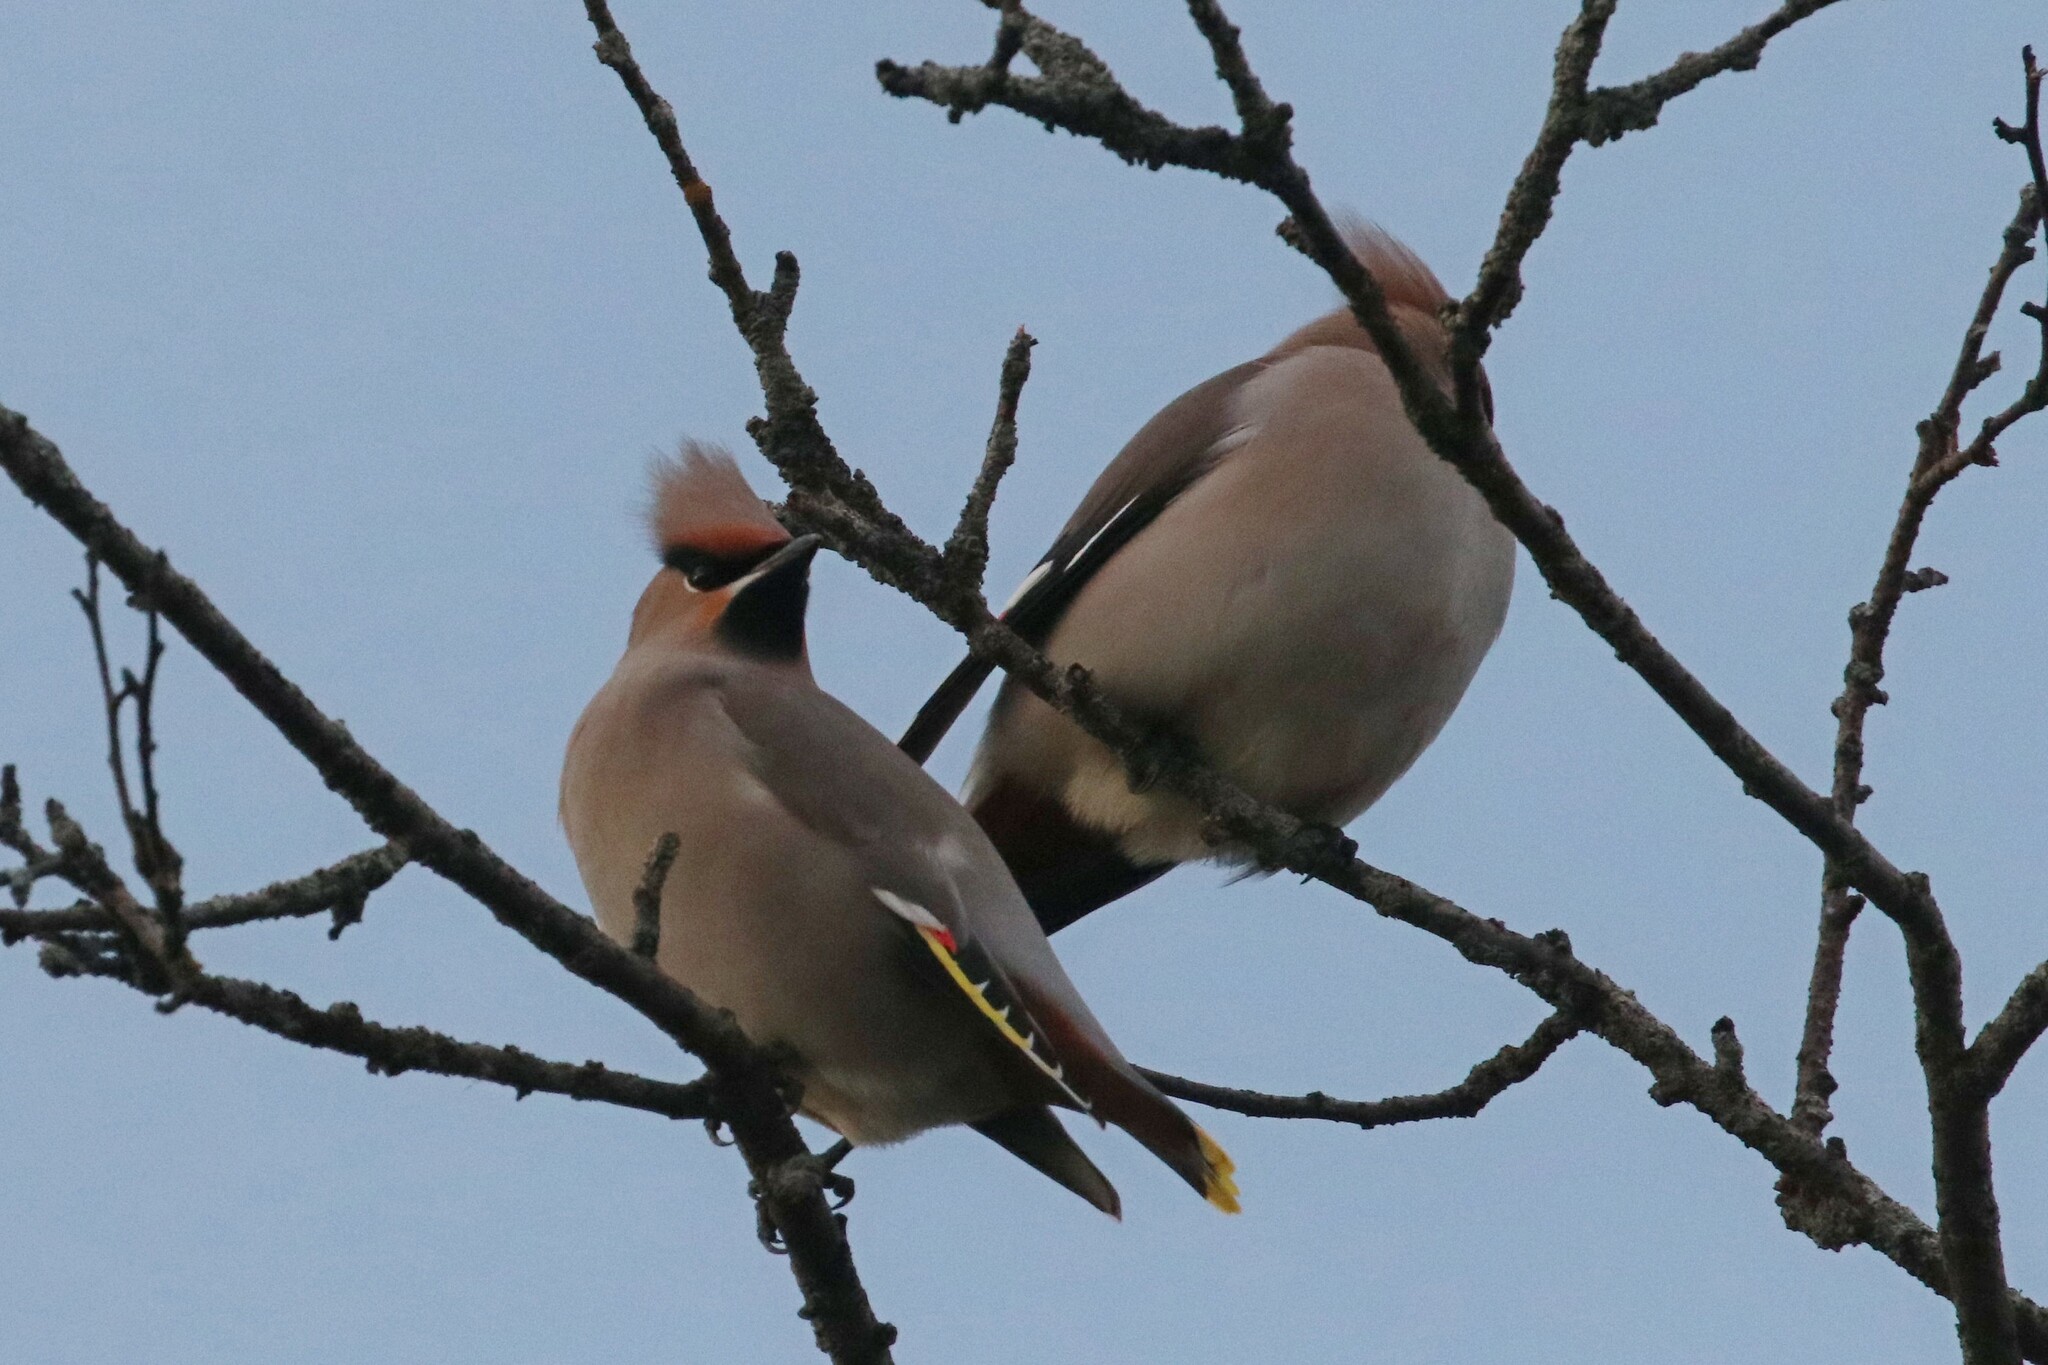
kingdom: Animalia
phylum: Chordata
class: Aves
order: Passeriformes
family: Bombycillidae
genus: Bombycilla
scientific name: Bombycilla garrulus
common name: Bohemian waxwing
